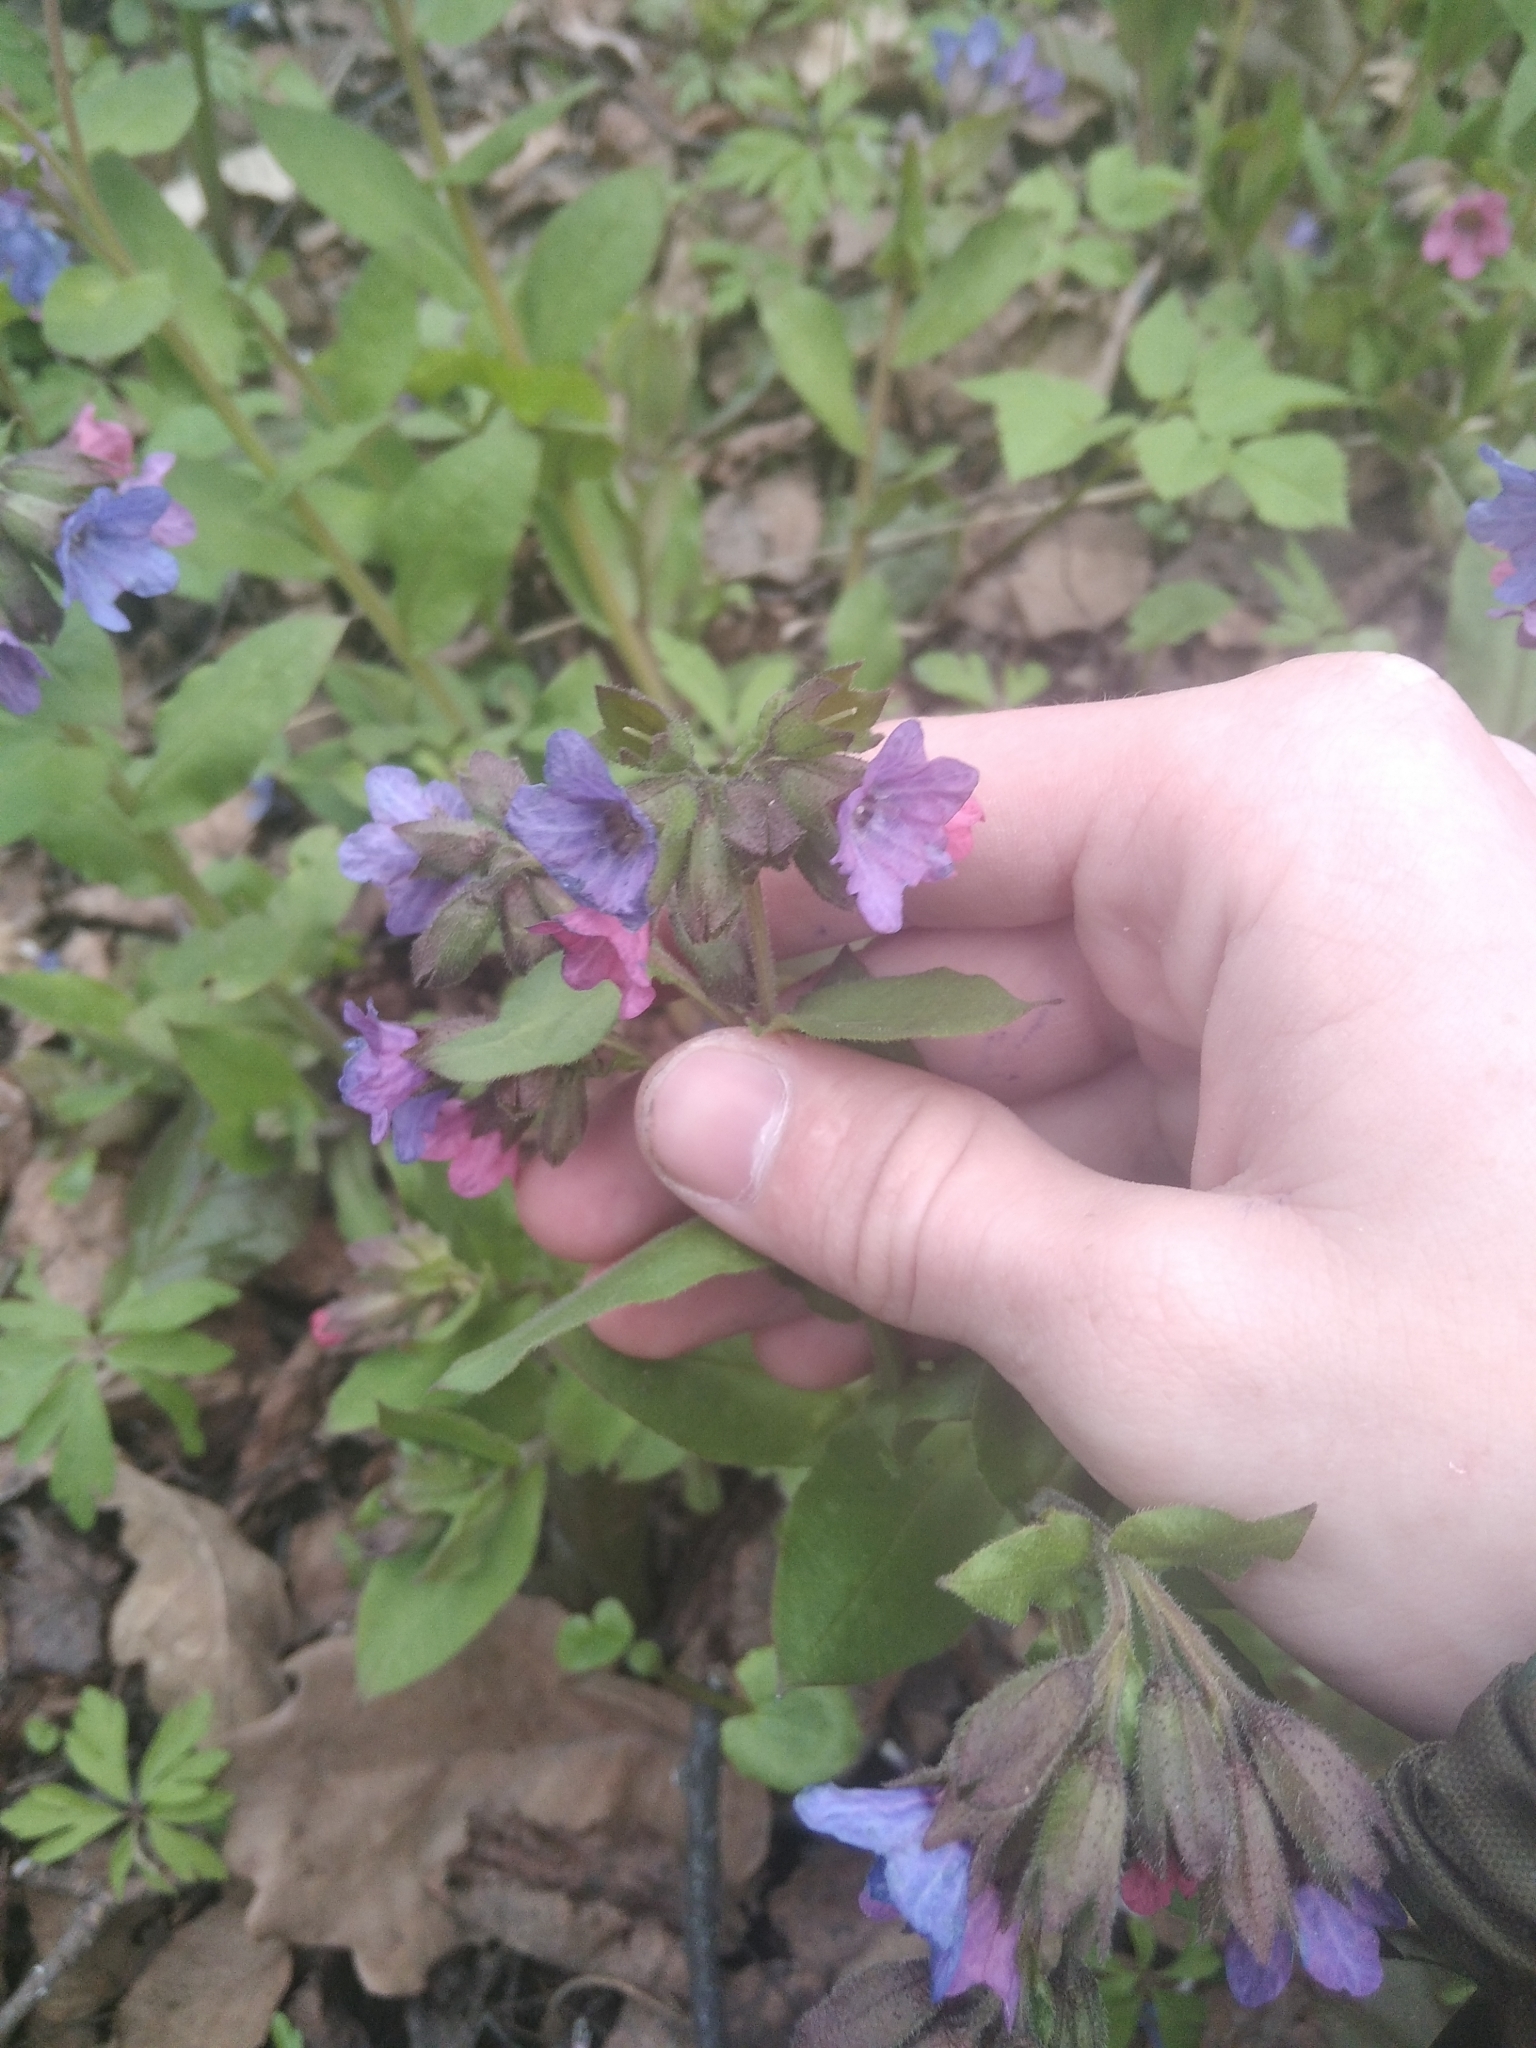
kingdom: Plantae
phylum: Tracheophyta
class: Magnoliopsida
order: Boraginales
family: Boraginaceae
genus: Pulmonaria
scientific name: Pulmonaria obscura
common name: Suffolk lungwort
